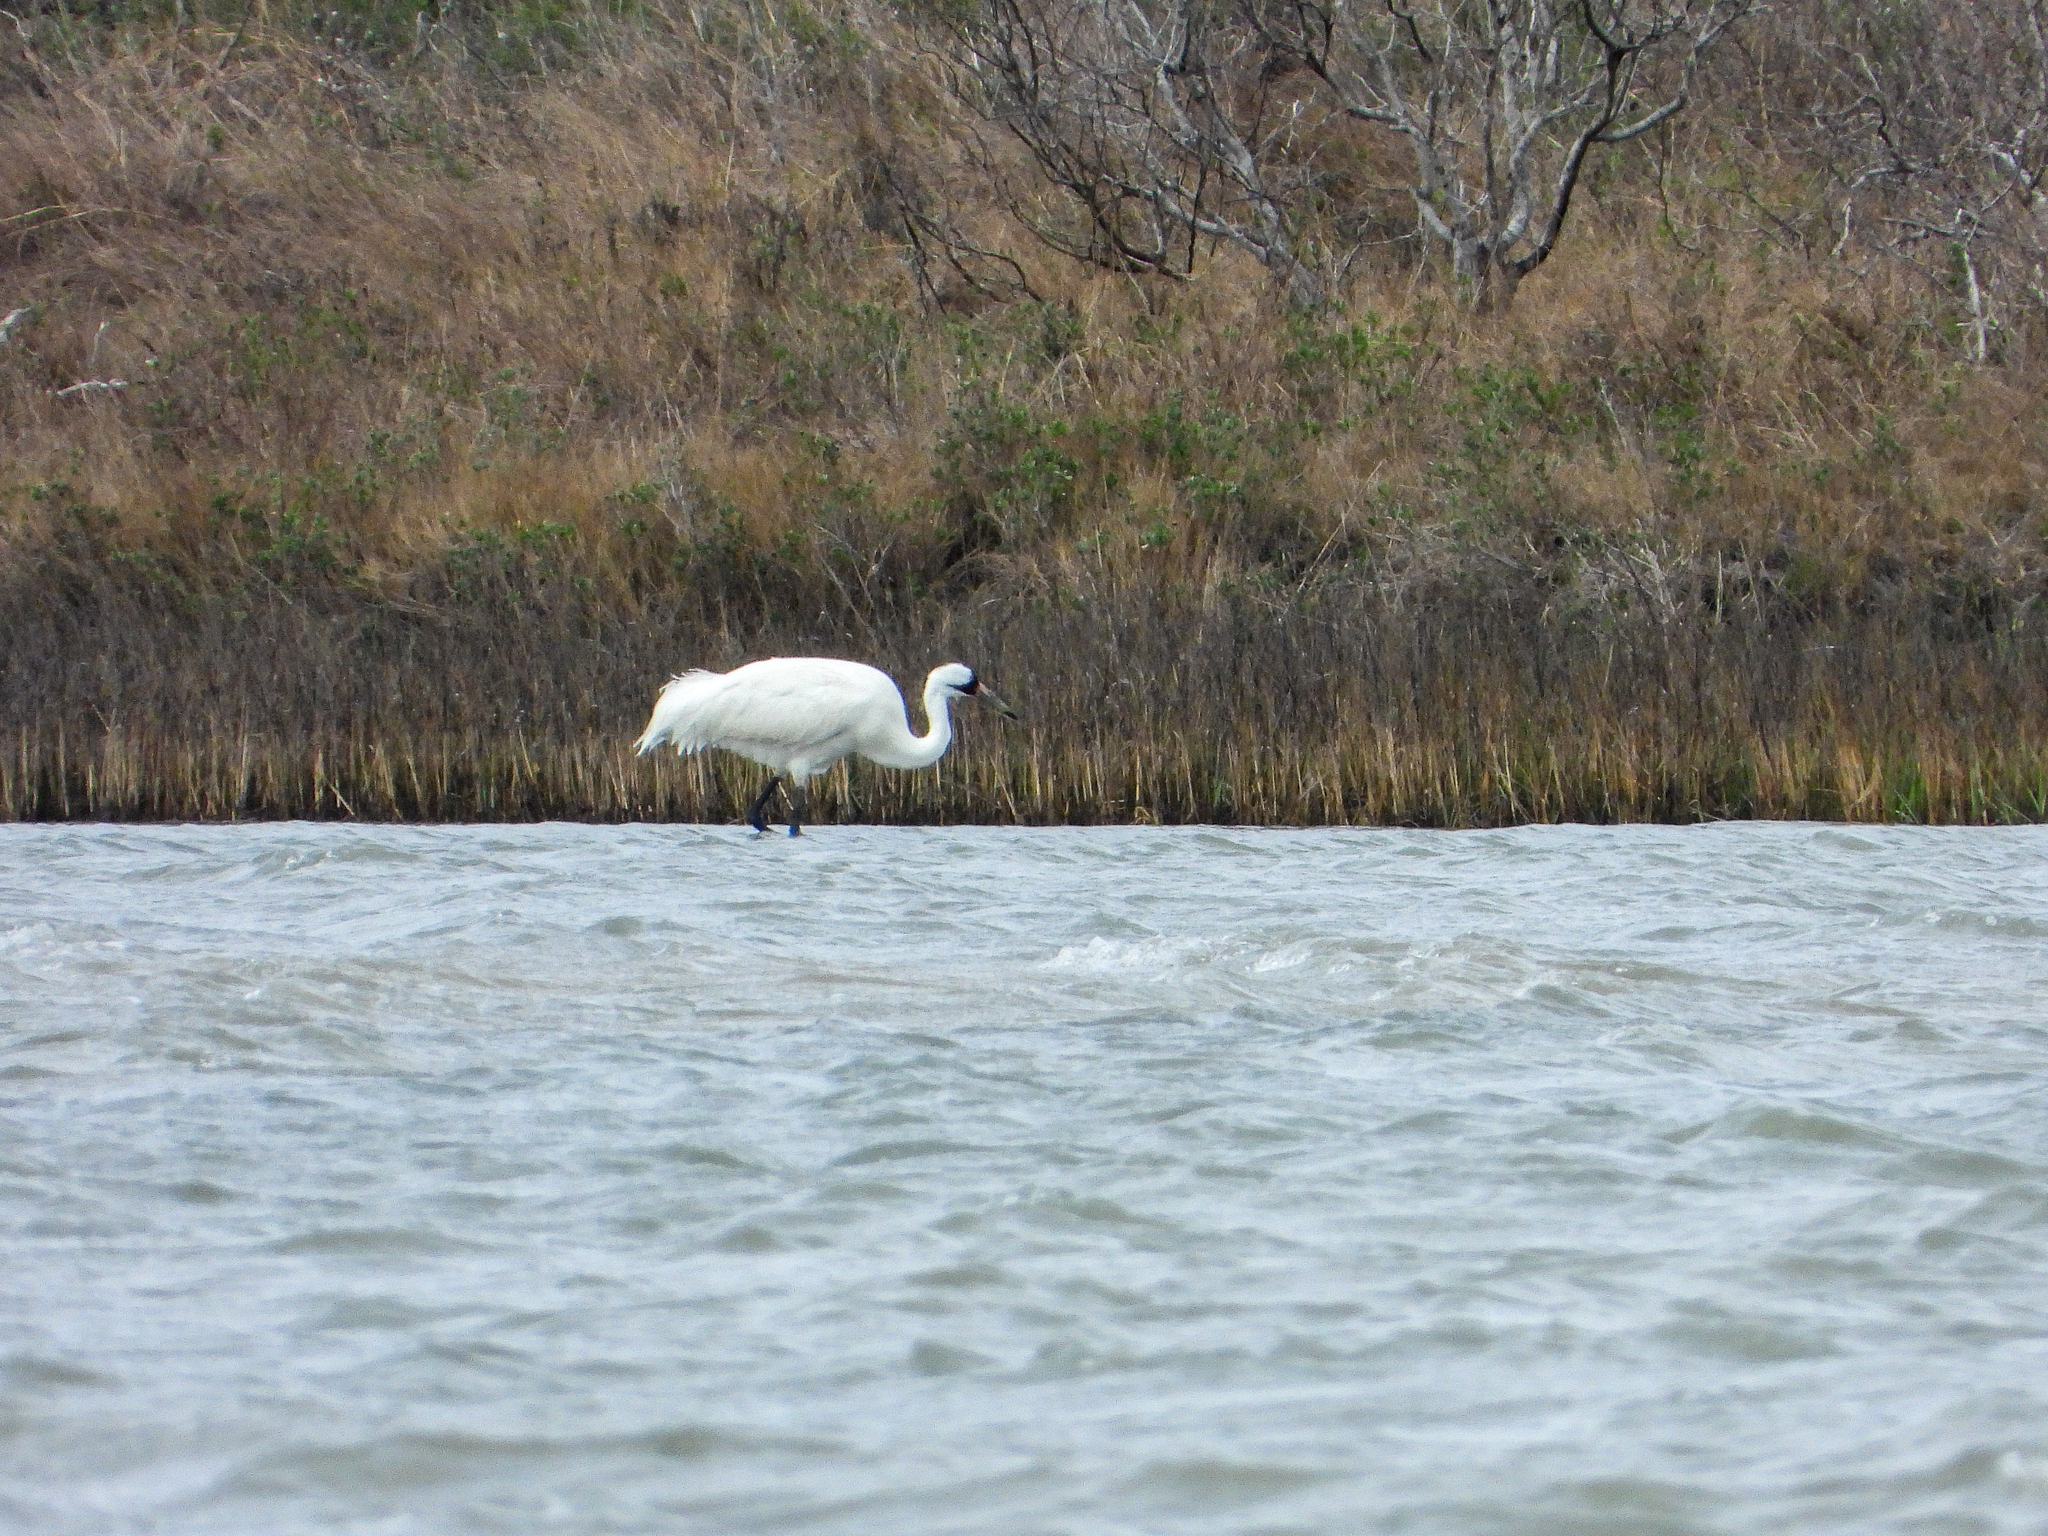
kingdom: Animalia
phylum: Chordata
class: Aves
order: Gruiformes
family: Gruidae
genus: Grus
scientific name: Grus americana
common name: Whooping crane
